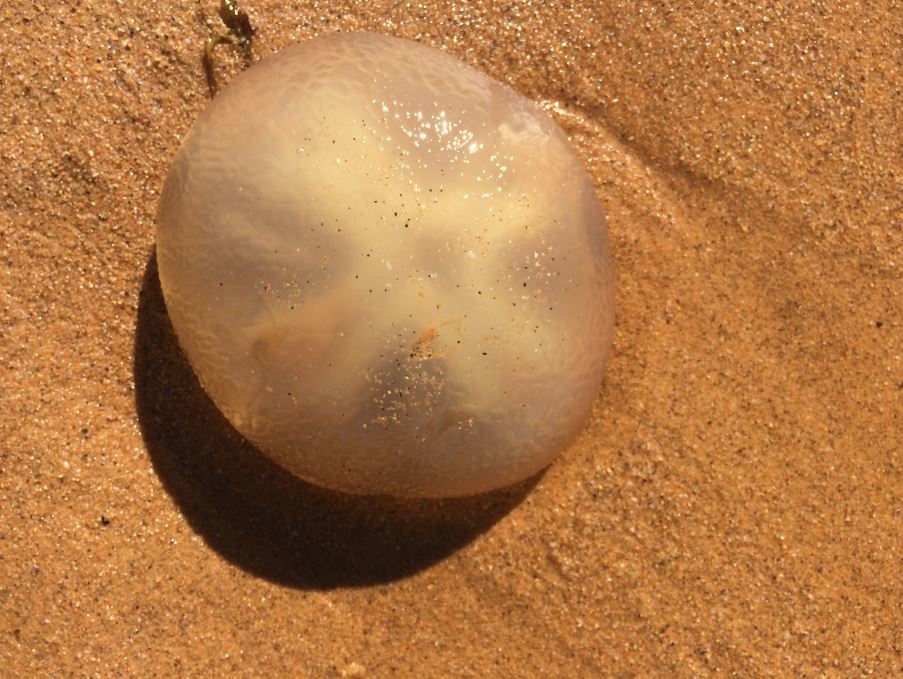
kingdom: Animalia
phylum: Cnidaria
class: Scyphozoa
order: Rhizostomeae
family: Catostylidae
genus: Catostylus
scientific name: Catostylus mosaicus
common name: Blue blubber
